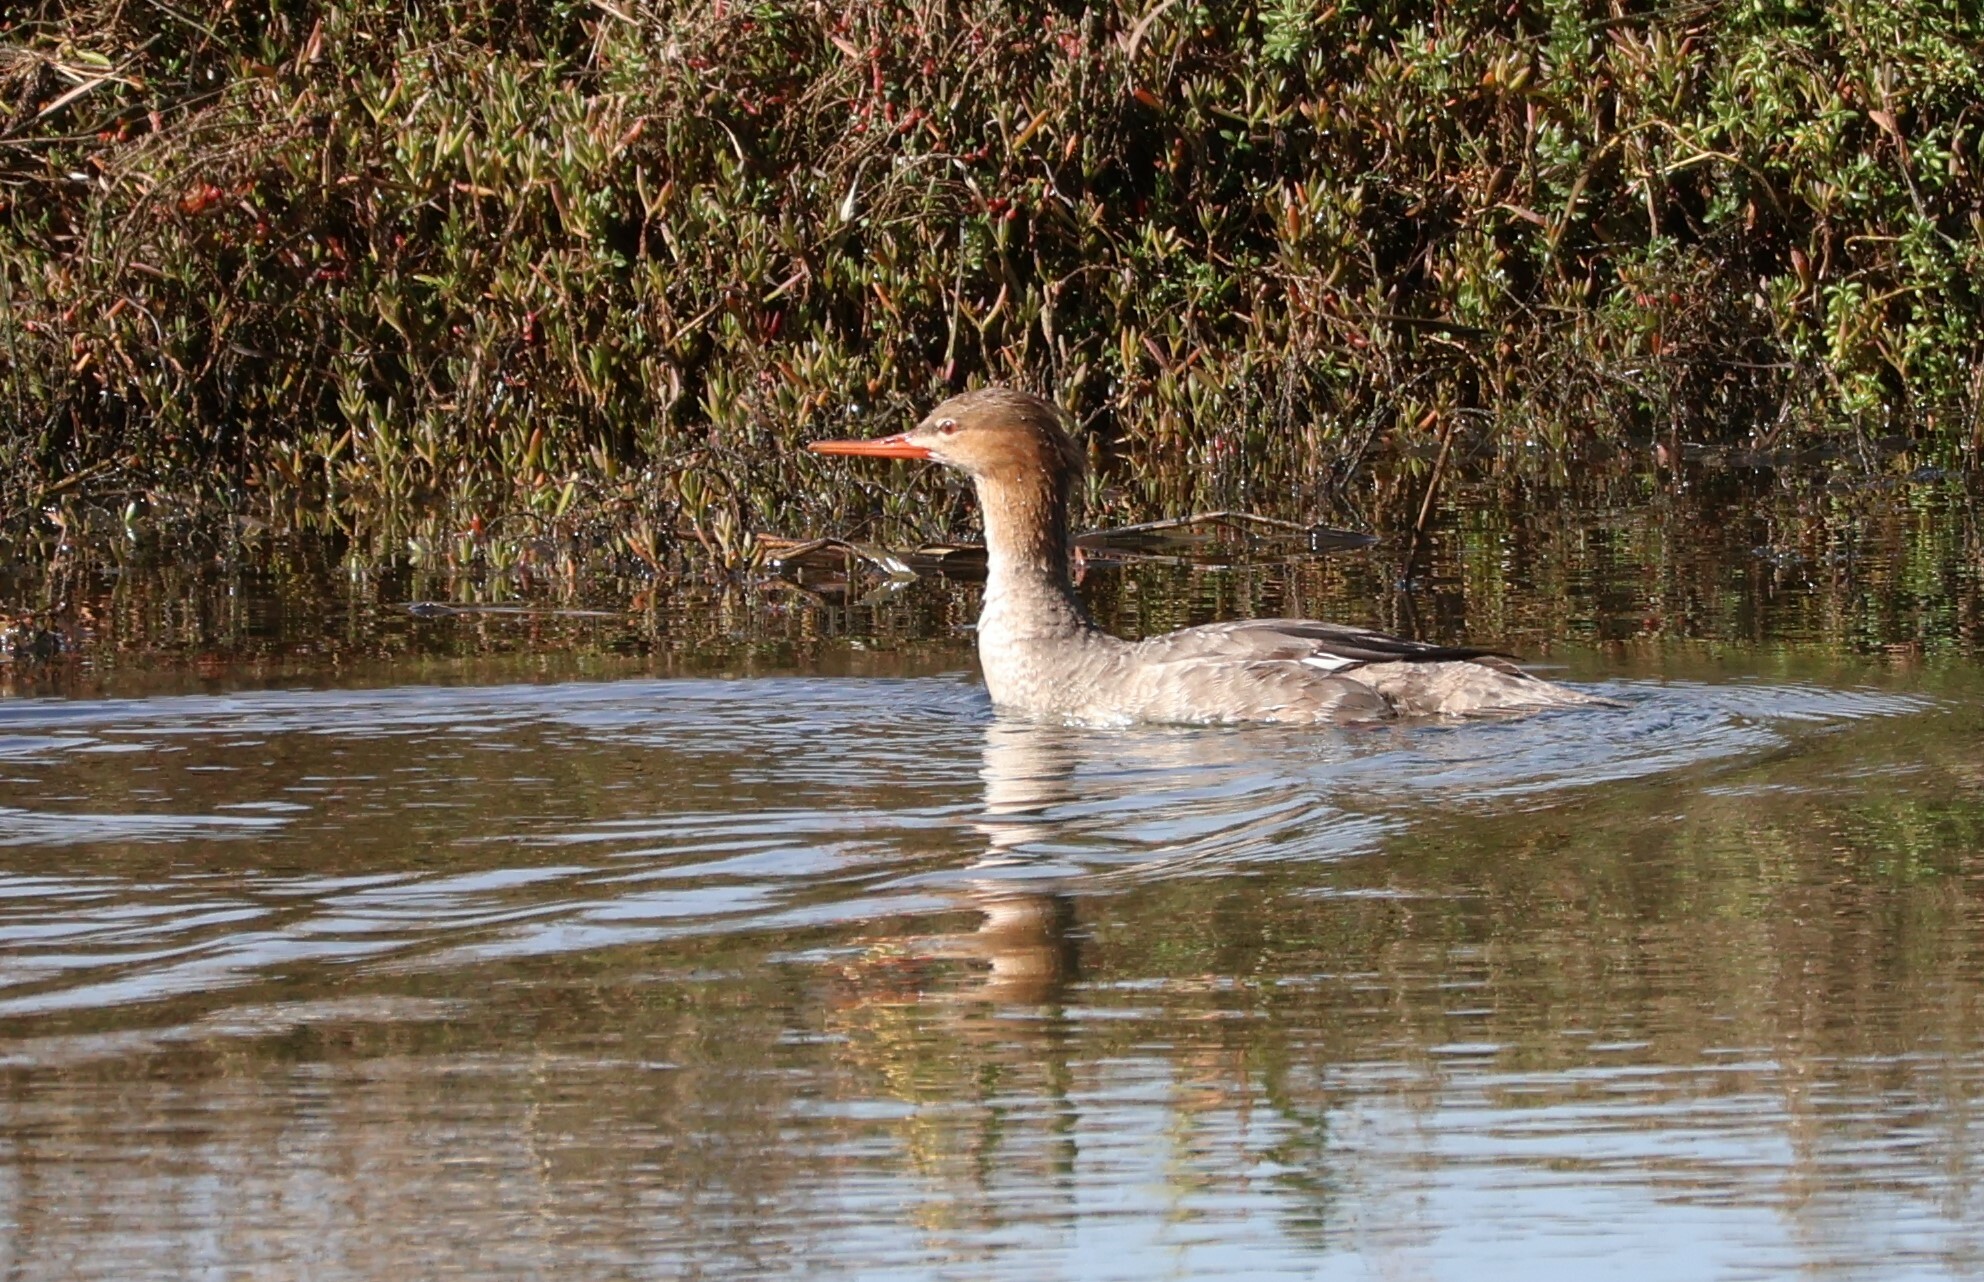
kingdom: Animalia
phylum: Chordata
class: Aves
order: Anseriformes
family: Anatidae
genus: Mergus
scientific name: Mergus serrator
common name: Red-breasted merganser
